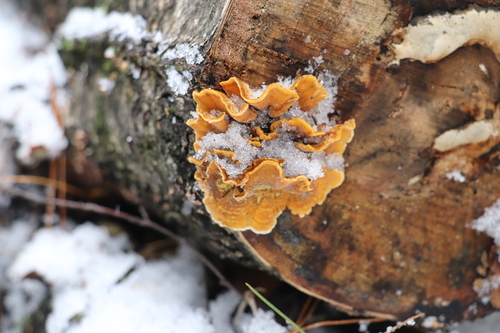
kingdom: Fungi
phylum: Basidiomycota
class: Agaricomycetes
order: Russulales
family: Stereaceae
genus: Stereum
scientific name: Stereum hirsutum
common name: Hairy curtain crust
